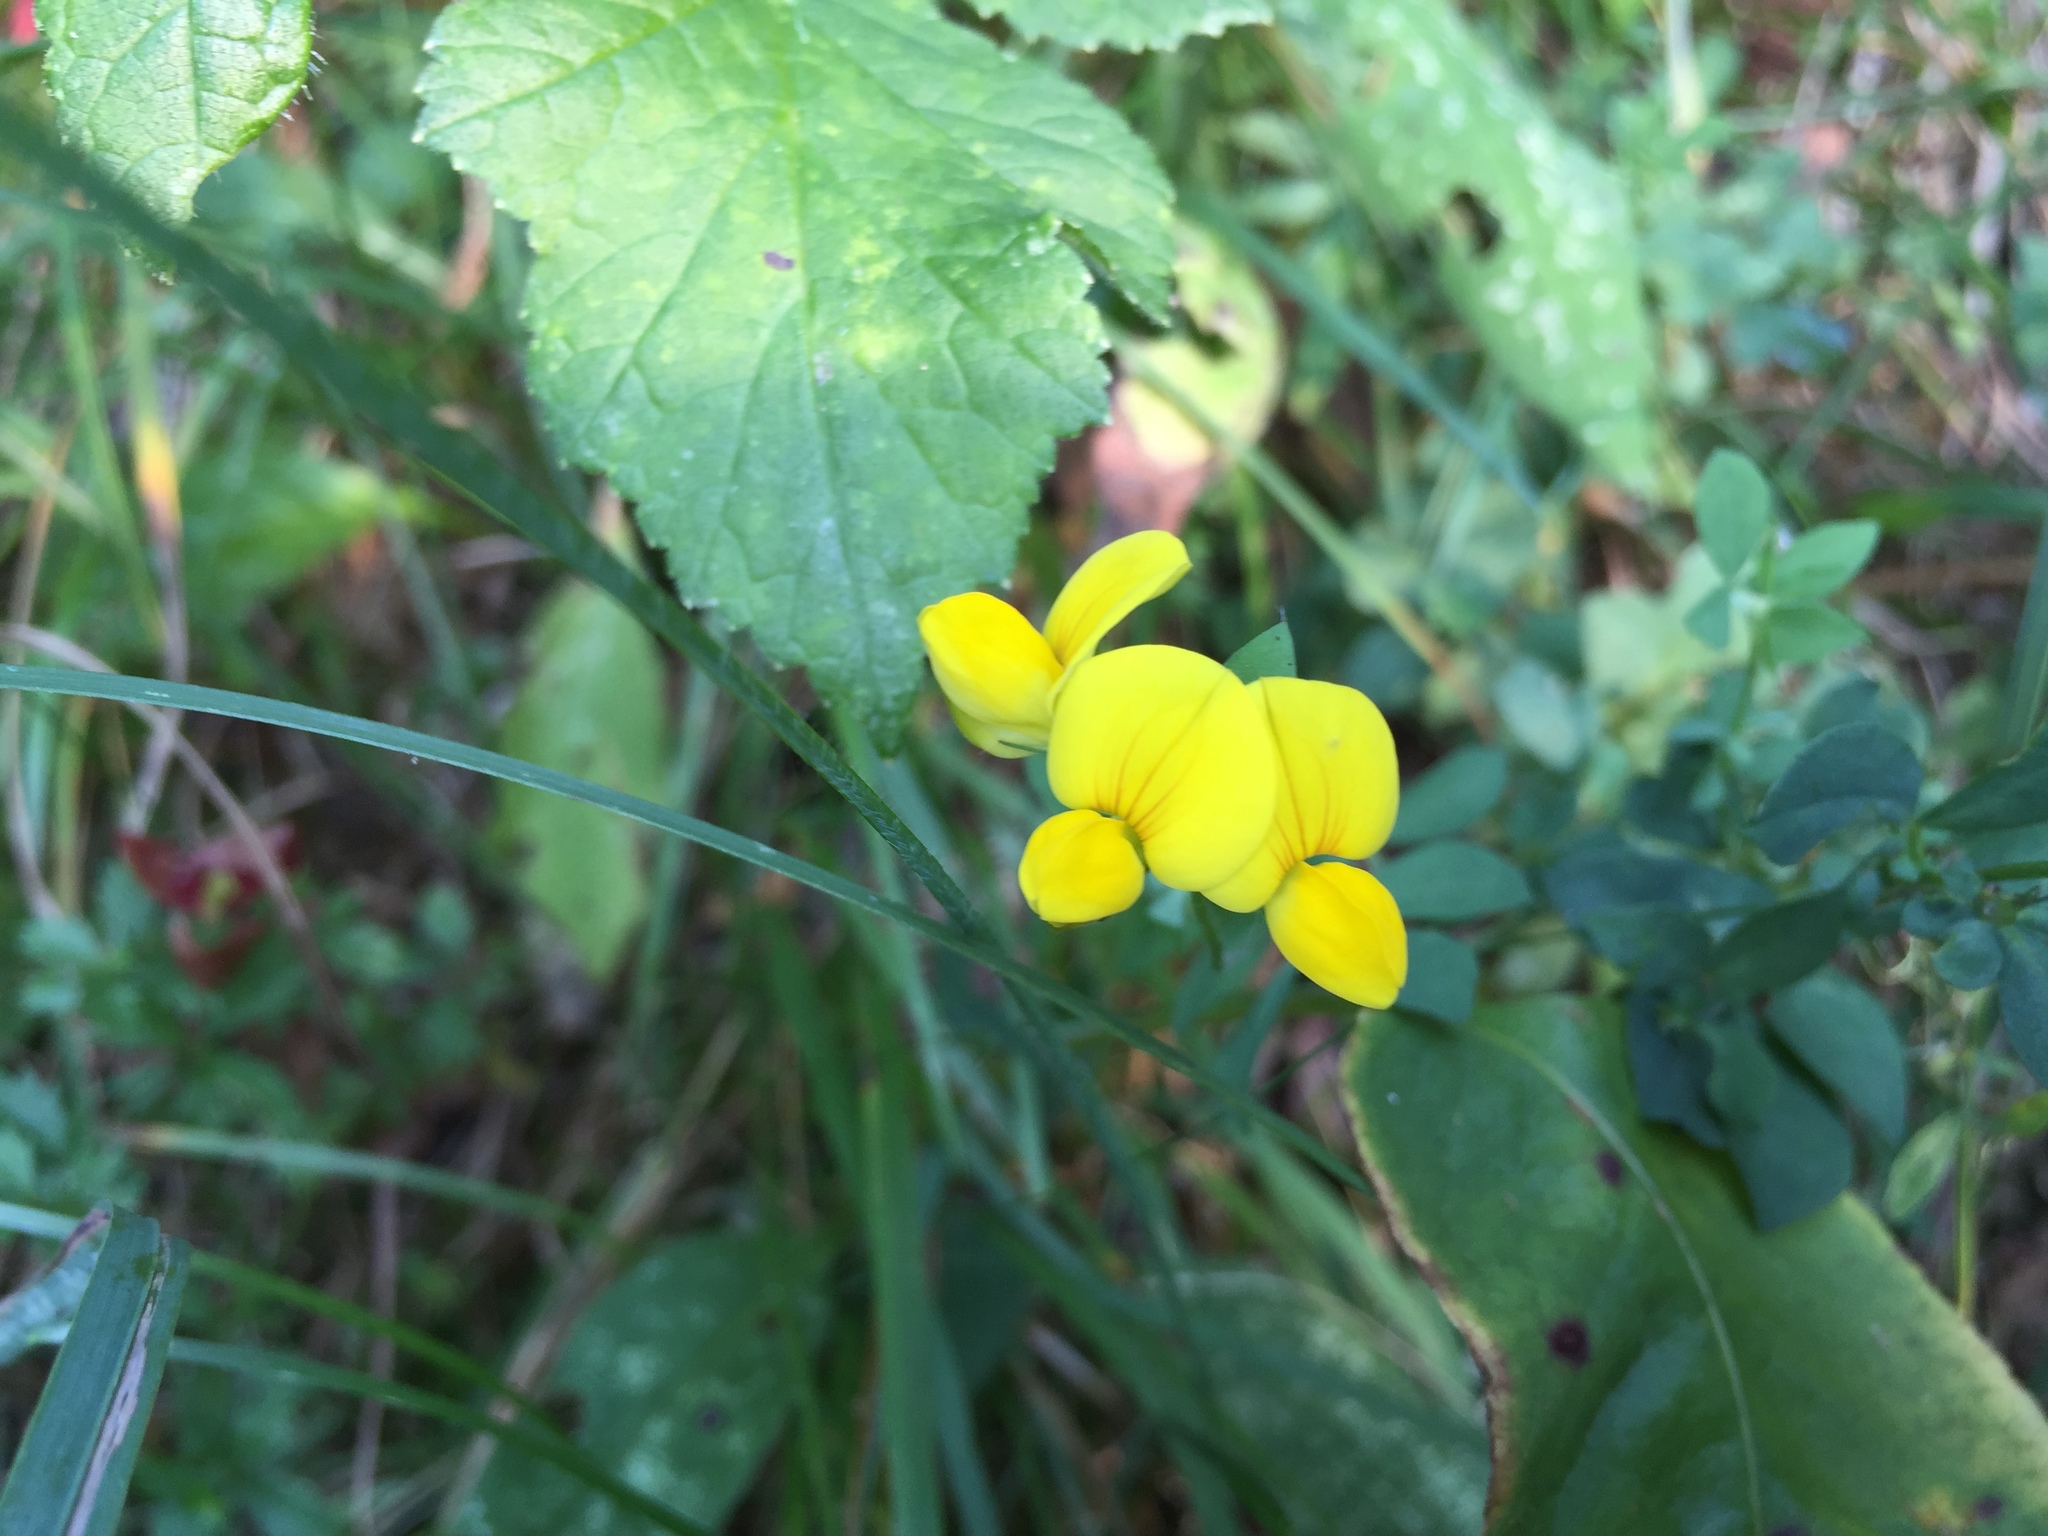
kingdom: Plantae
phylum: Tracheophyta
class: Magnoliopsida
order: Fabales
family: Fabaceae
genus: Lotus
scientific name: Lotus corniculatus
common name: Common bird's-foot-trefoil
